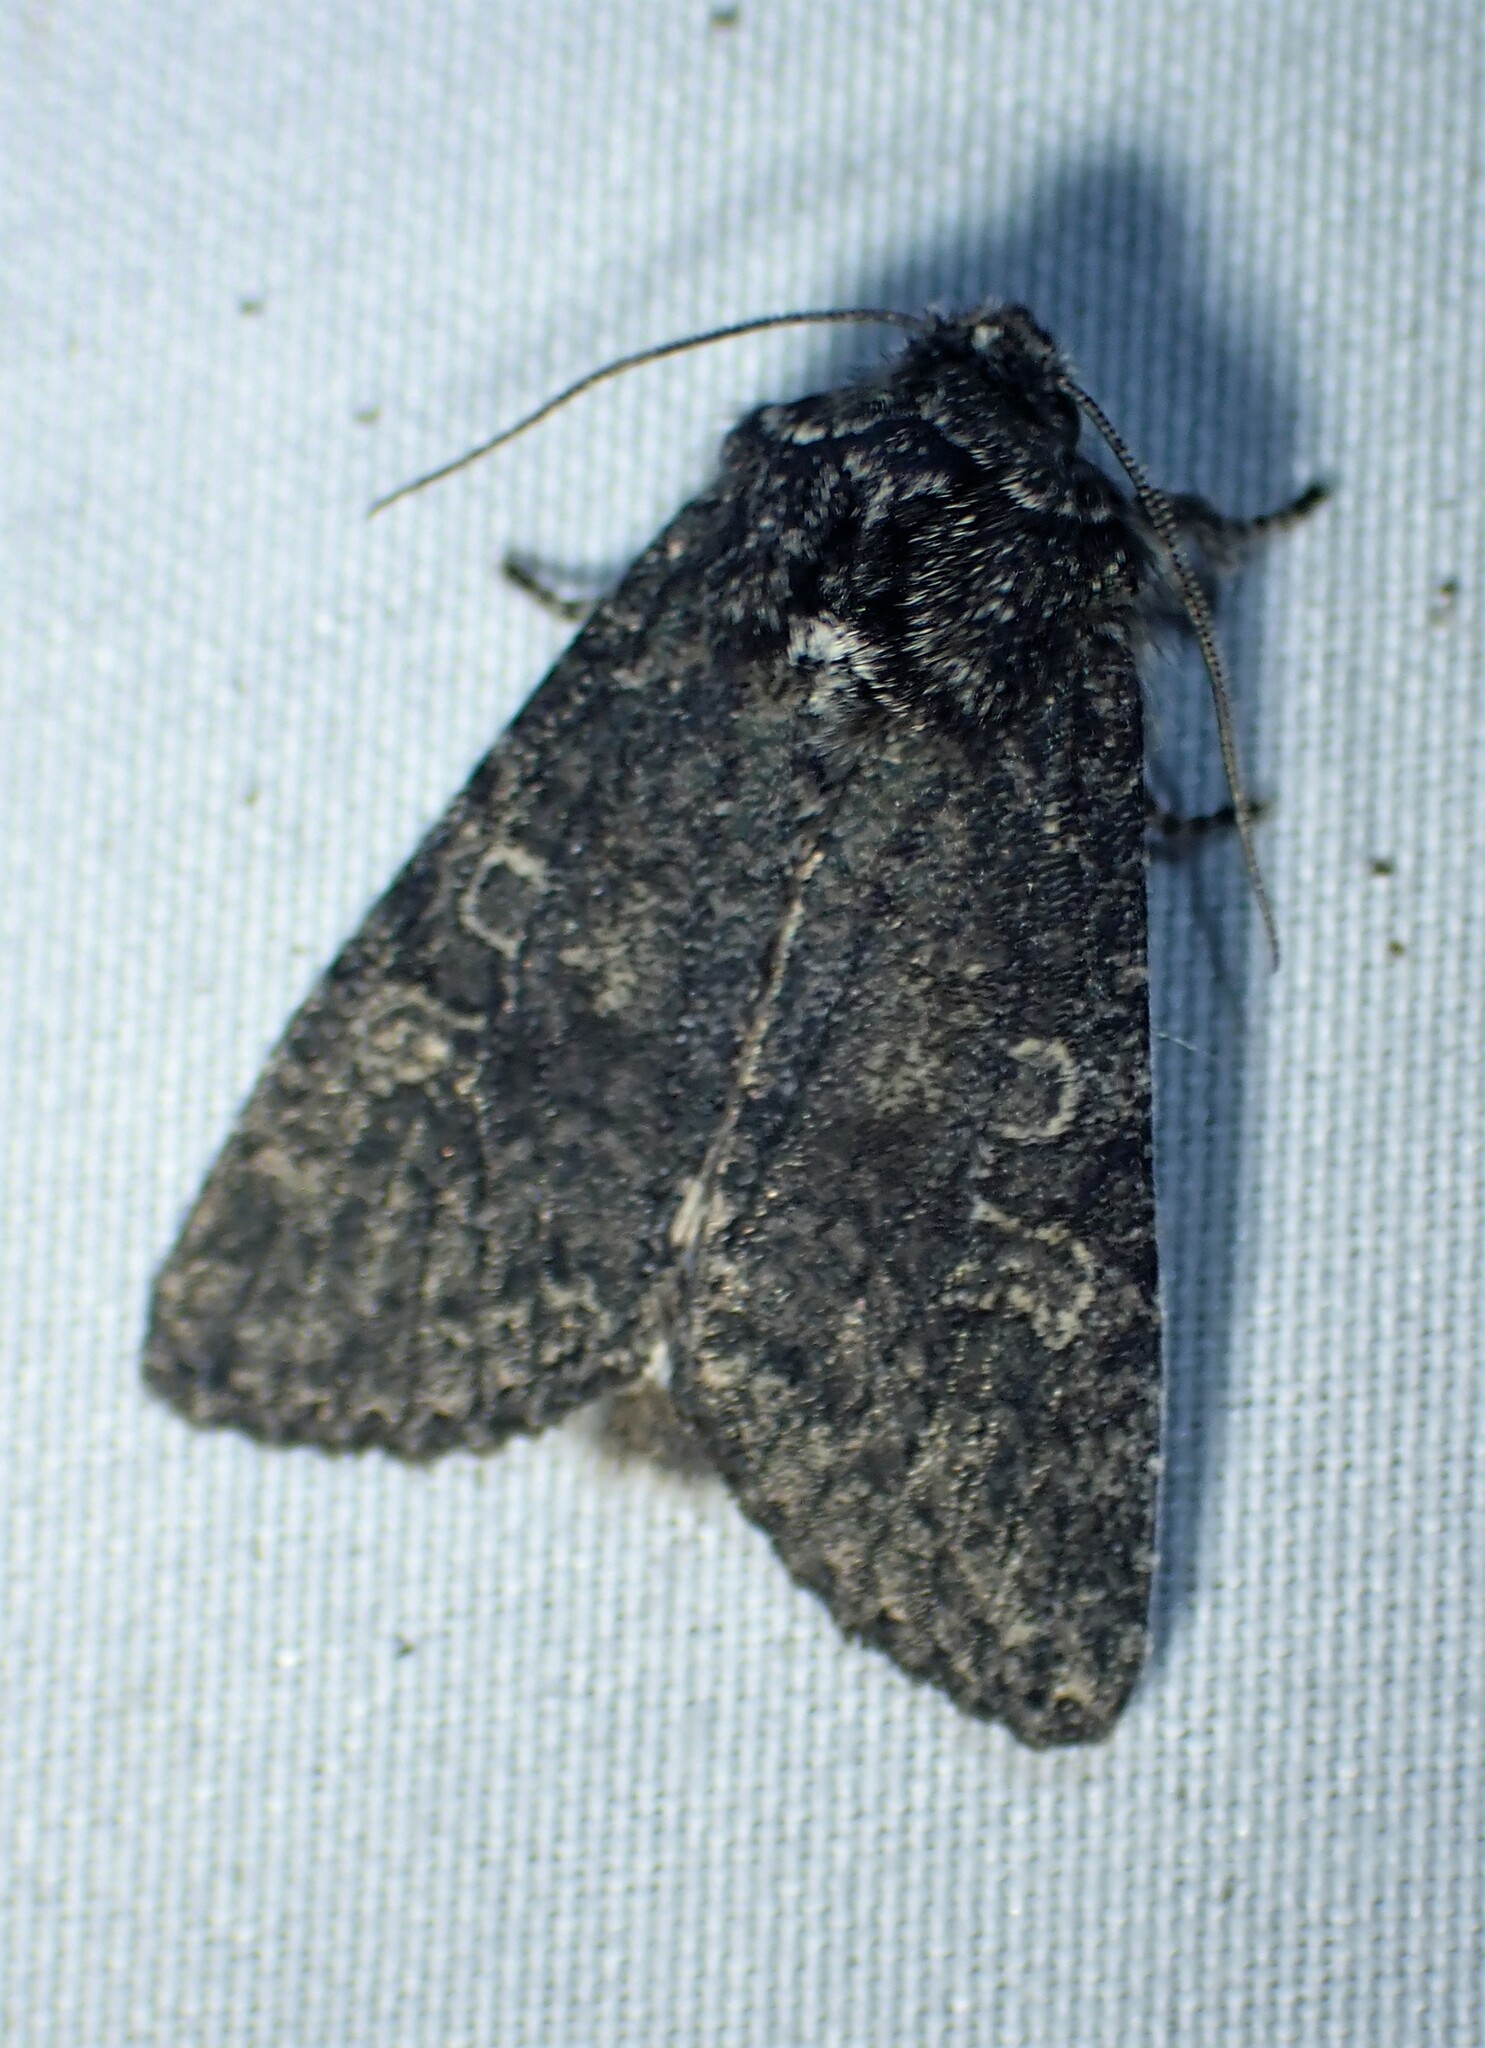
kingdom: Animalia
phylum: Arthropoda
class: Insecta
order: Lepidoptera
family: Noctuidae
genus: Egira
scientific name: Egira dolosa
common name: Lined black aspen cat.
